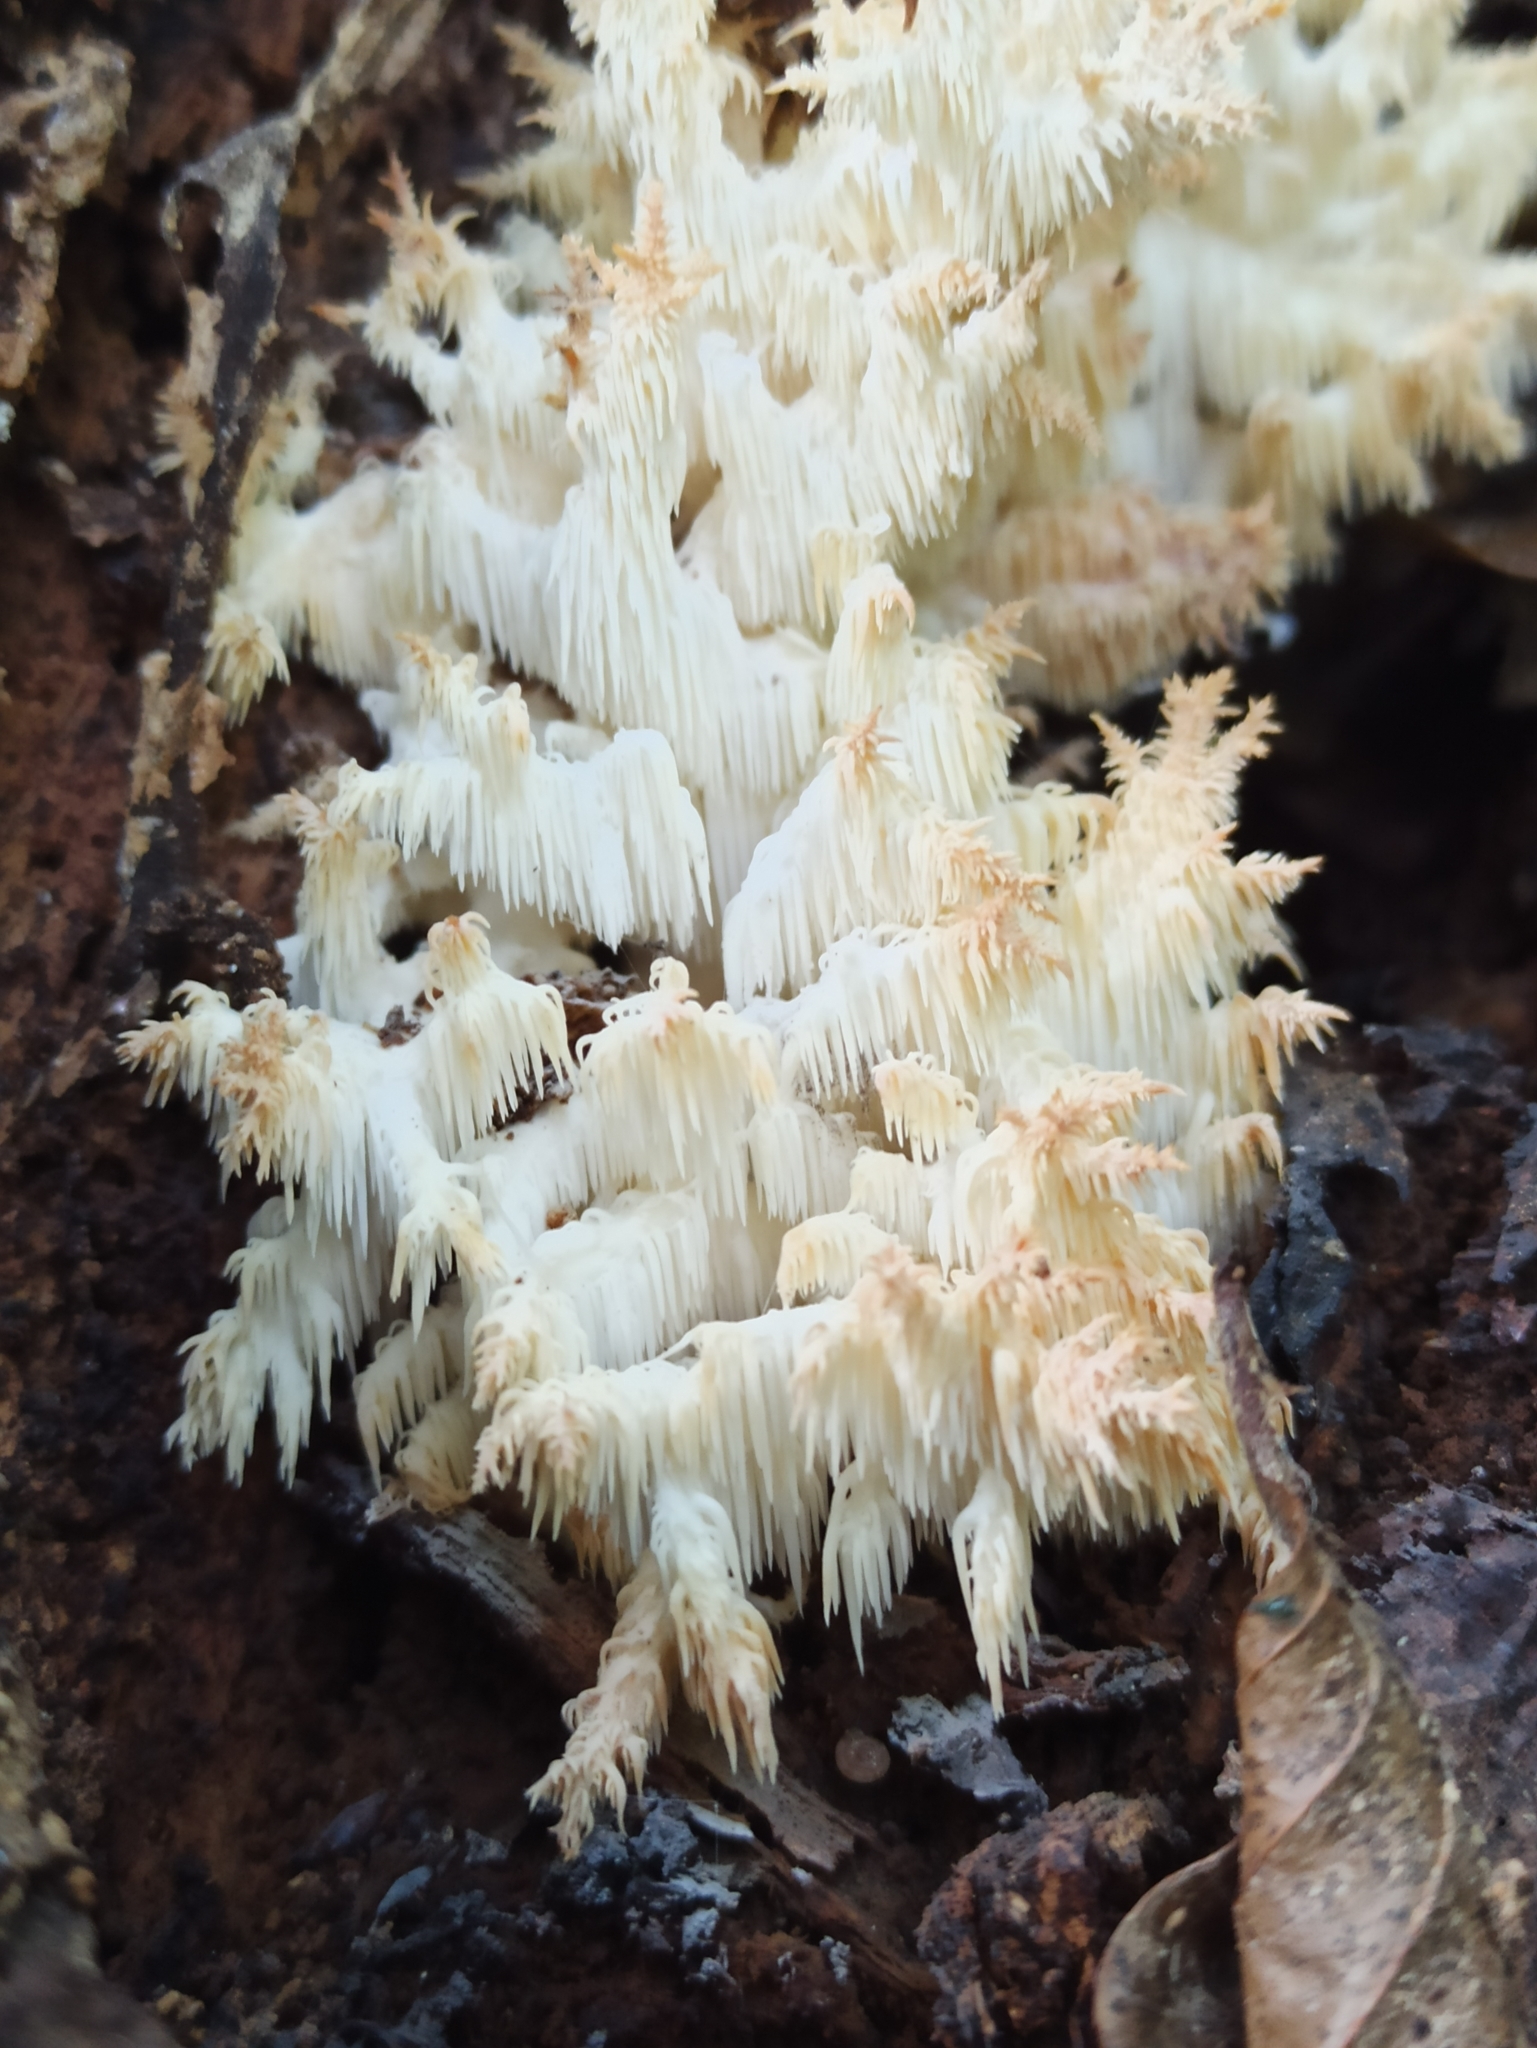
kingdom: Fungi
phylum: Basidiomycota
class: Agaricomycetes
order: Russulales
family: Hericiaceae
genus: Hericium
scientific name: Hericium coralloides
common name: Coral tooth
